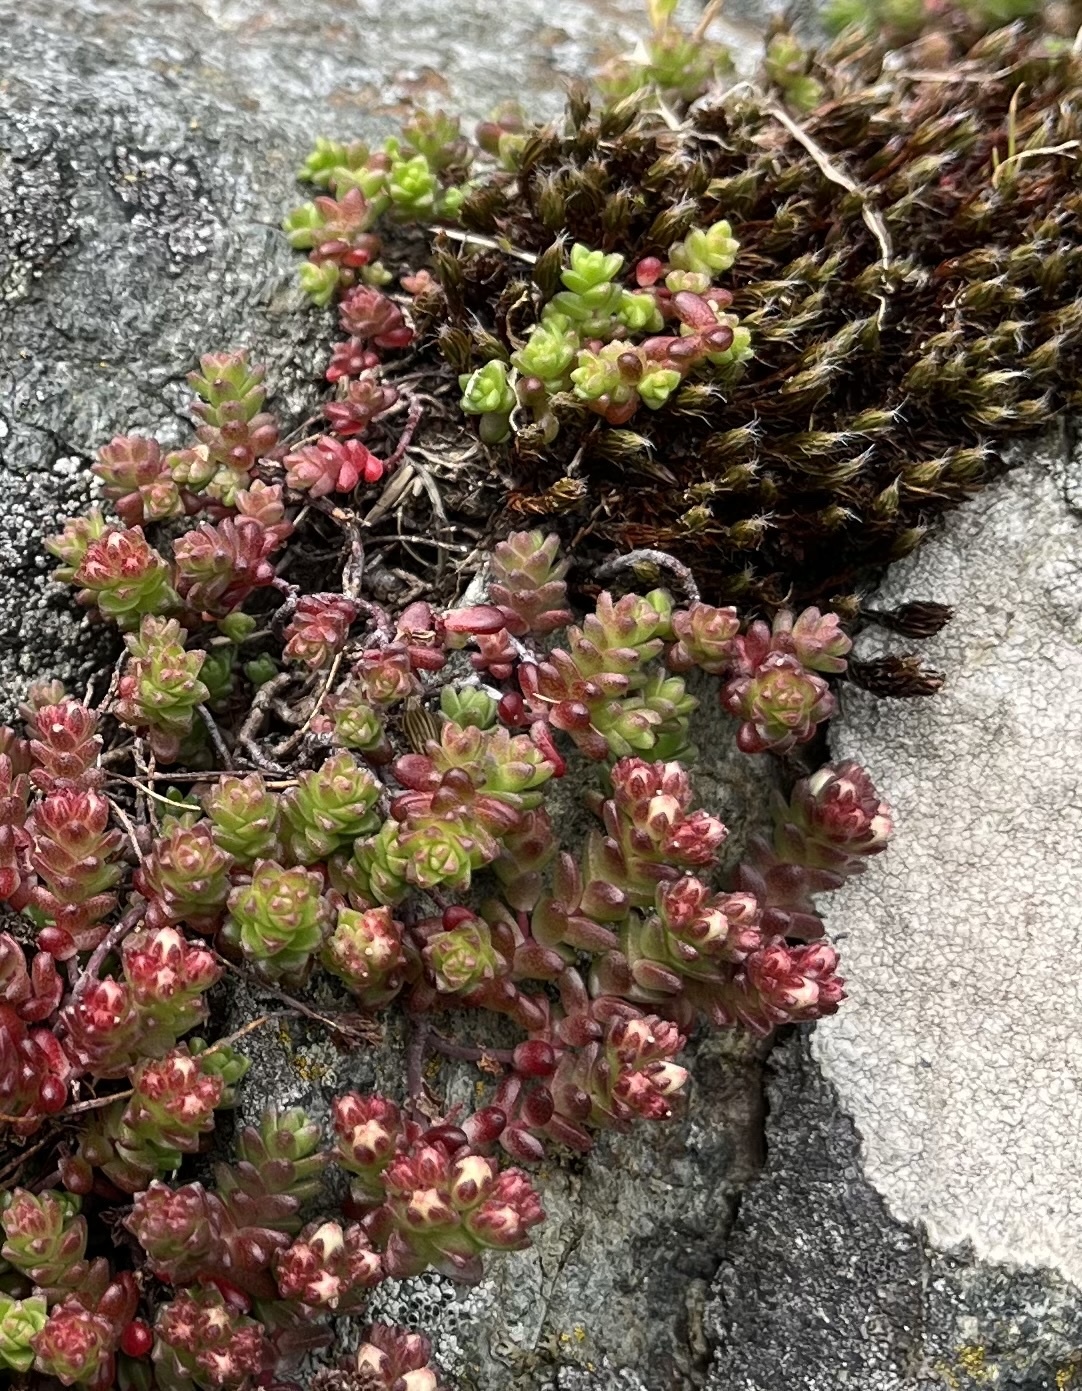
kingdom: Plantae
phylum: Tracheophyta
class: Magnoliopsida
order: Saxifragales
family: Crassulaceae
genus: Sedum
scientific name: Sedum anglicum
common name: English stonecrop
